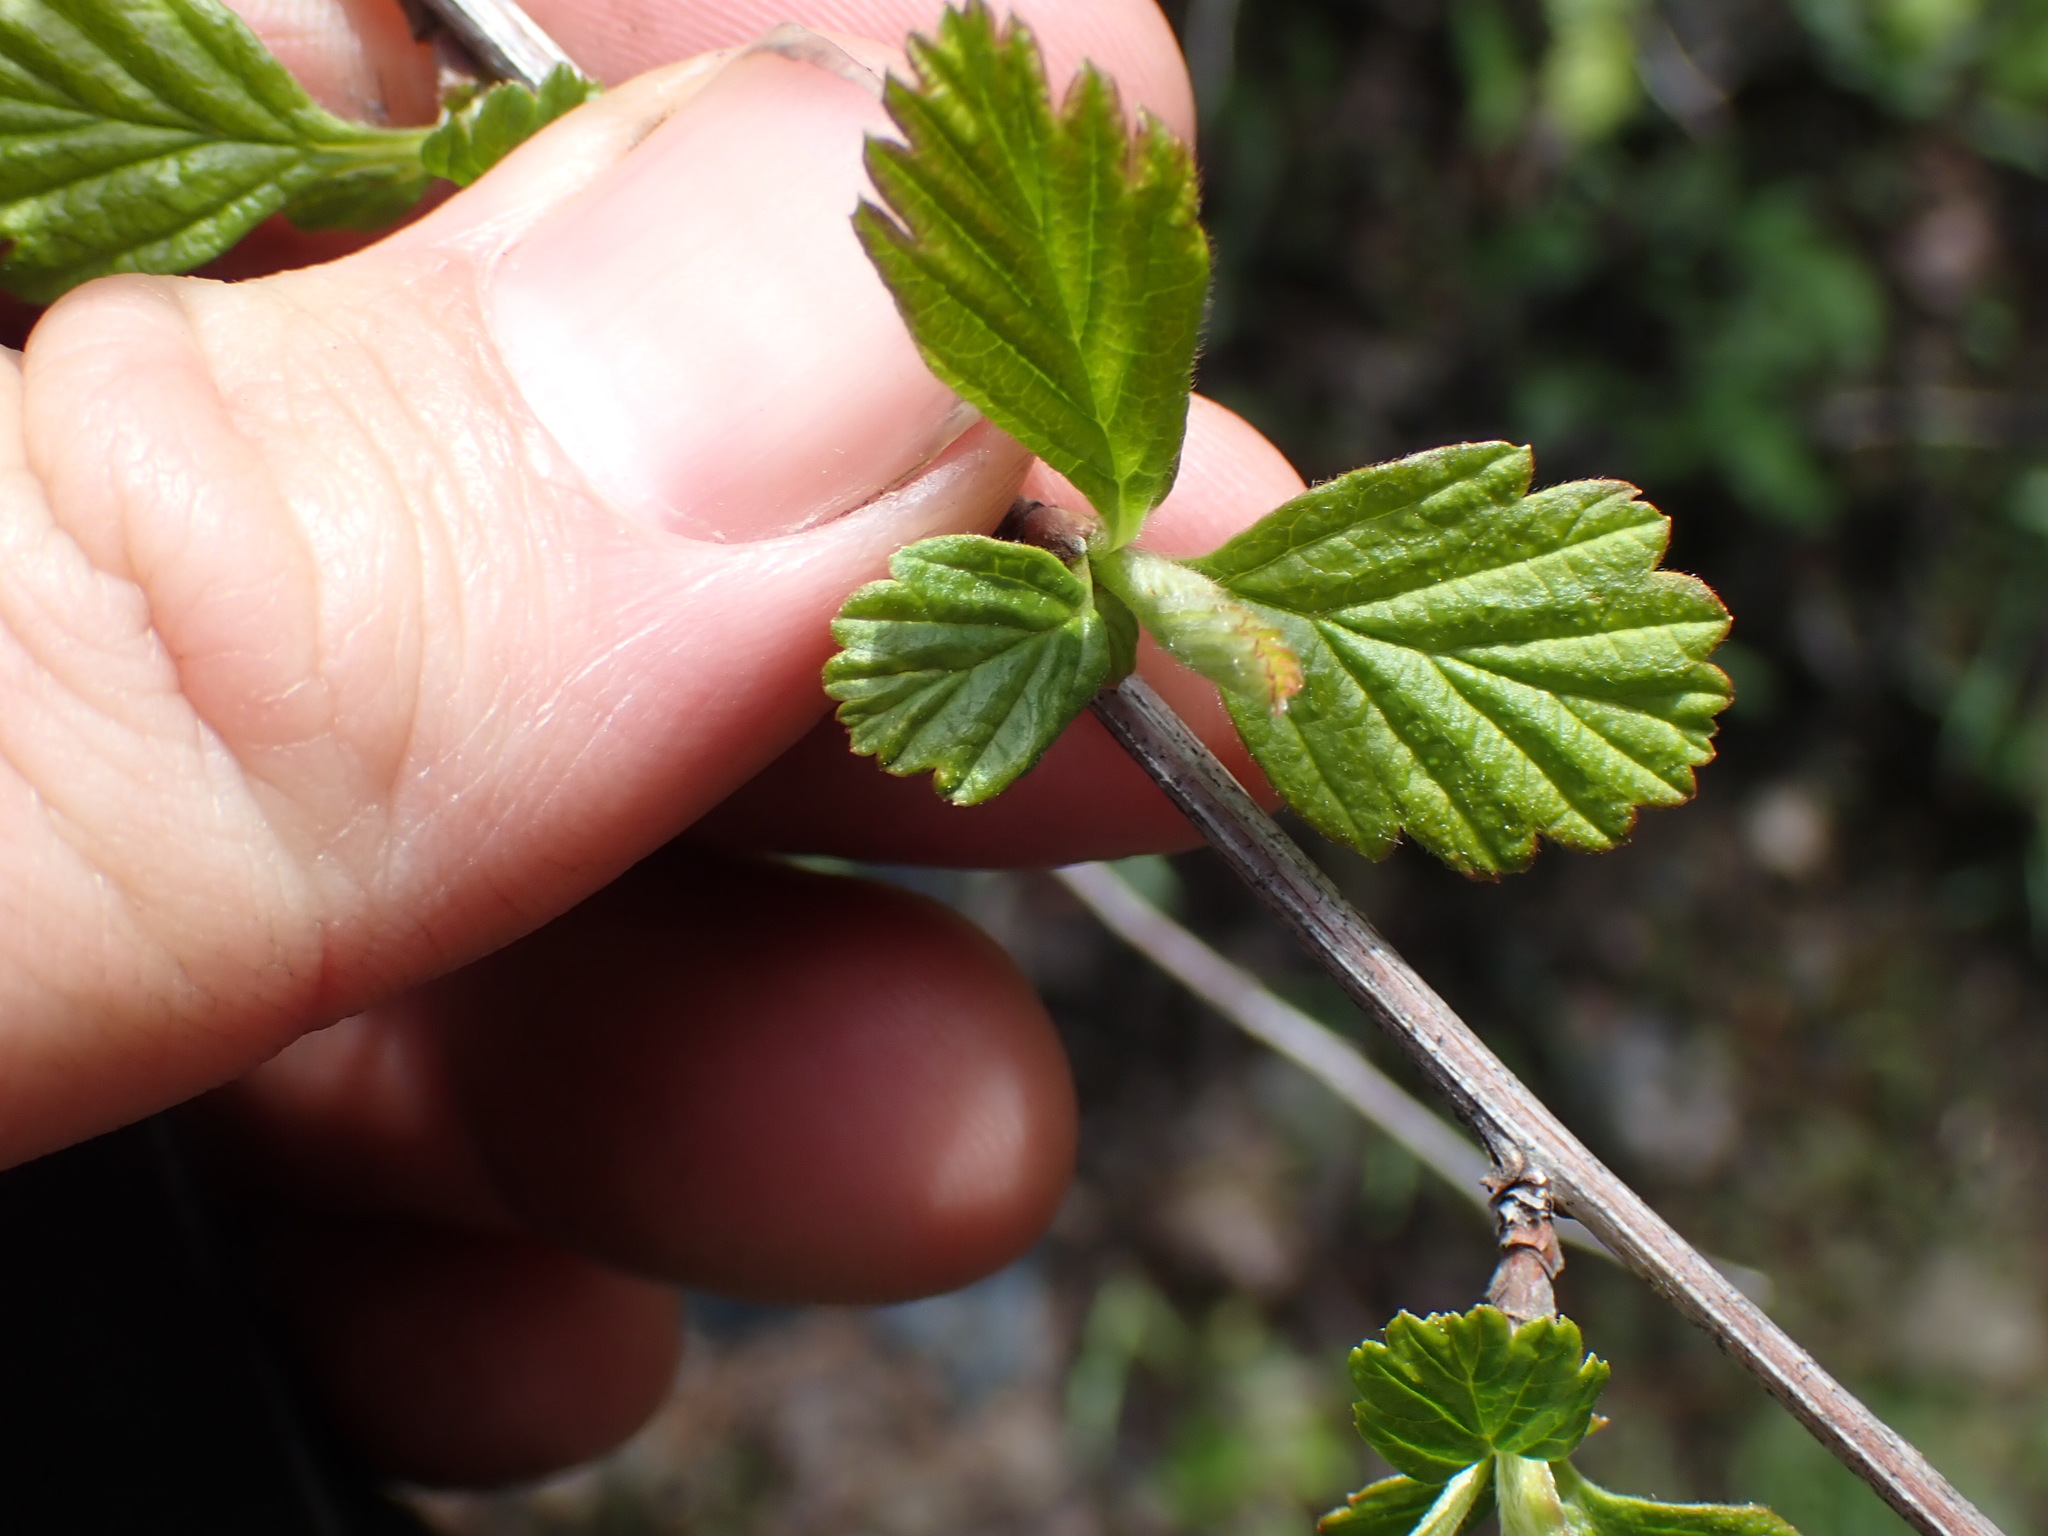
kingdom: Plantae
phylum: Tracheophyta
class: Magnoliopsida
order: Rosales
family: Rosaceae
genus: Holodiscus
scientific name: Holodiscus discolor
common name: Oceanspray
